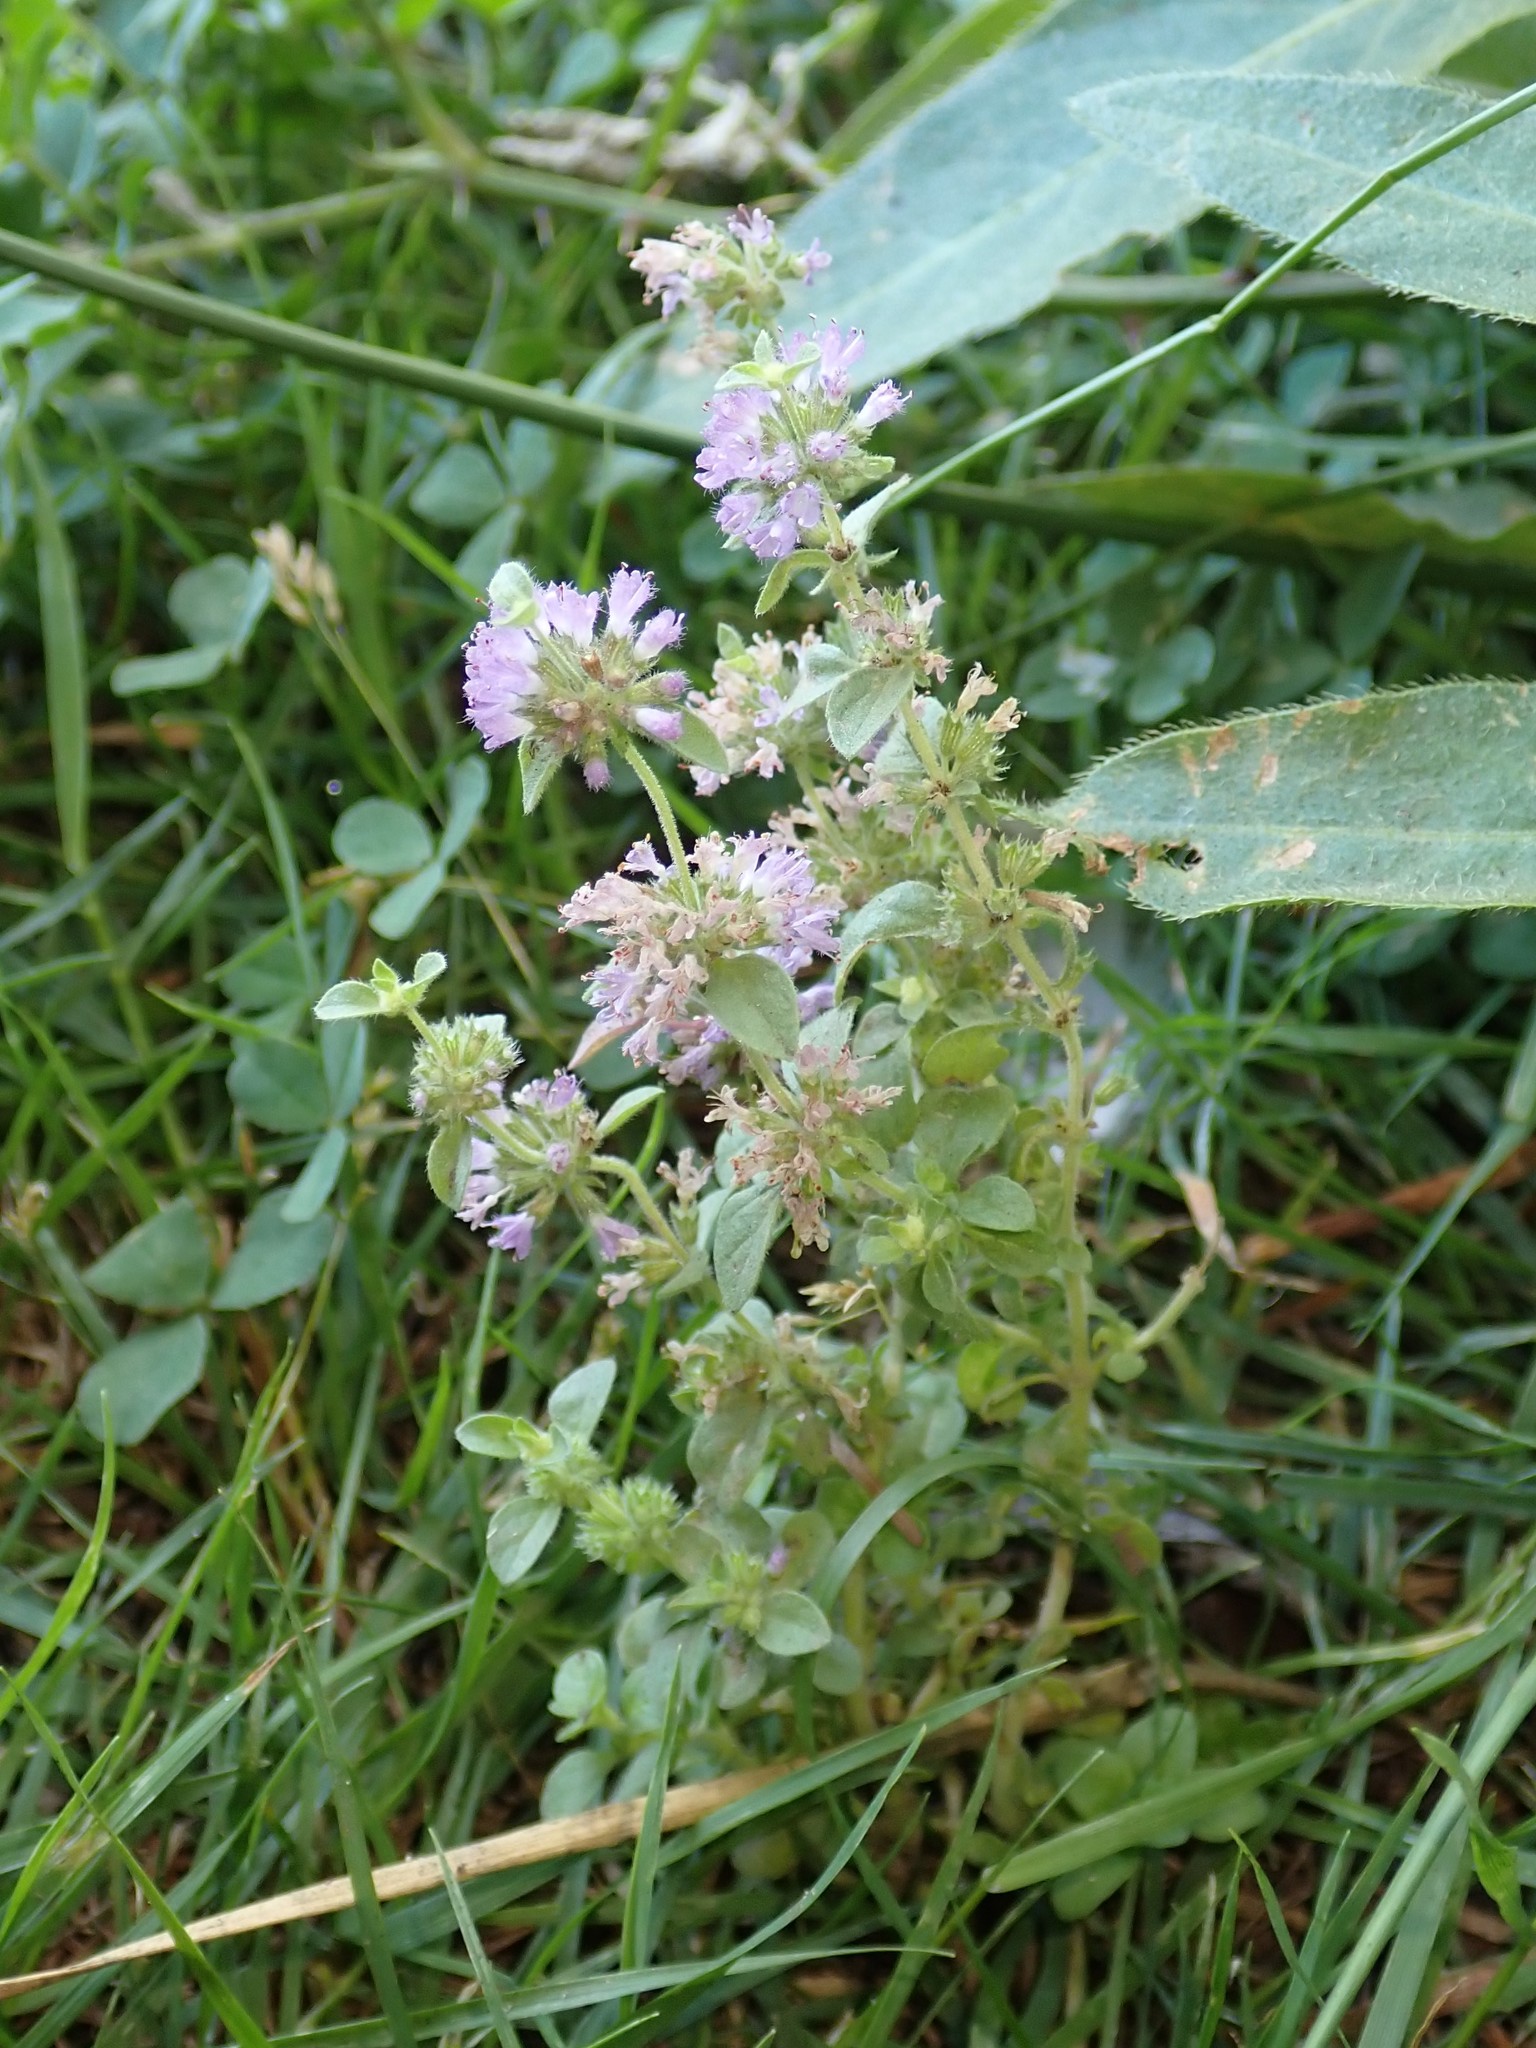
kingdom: Plantae
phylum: Tracheophyta
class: Magnoliopsida
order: Lamiales
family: Lamiaceae
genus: Mentha
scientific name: Mentha pulegium
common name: Pennyroyal
